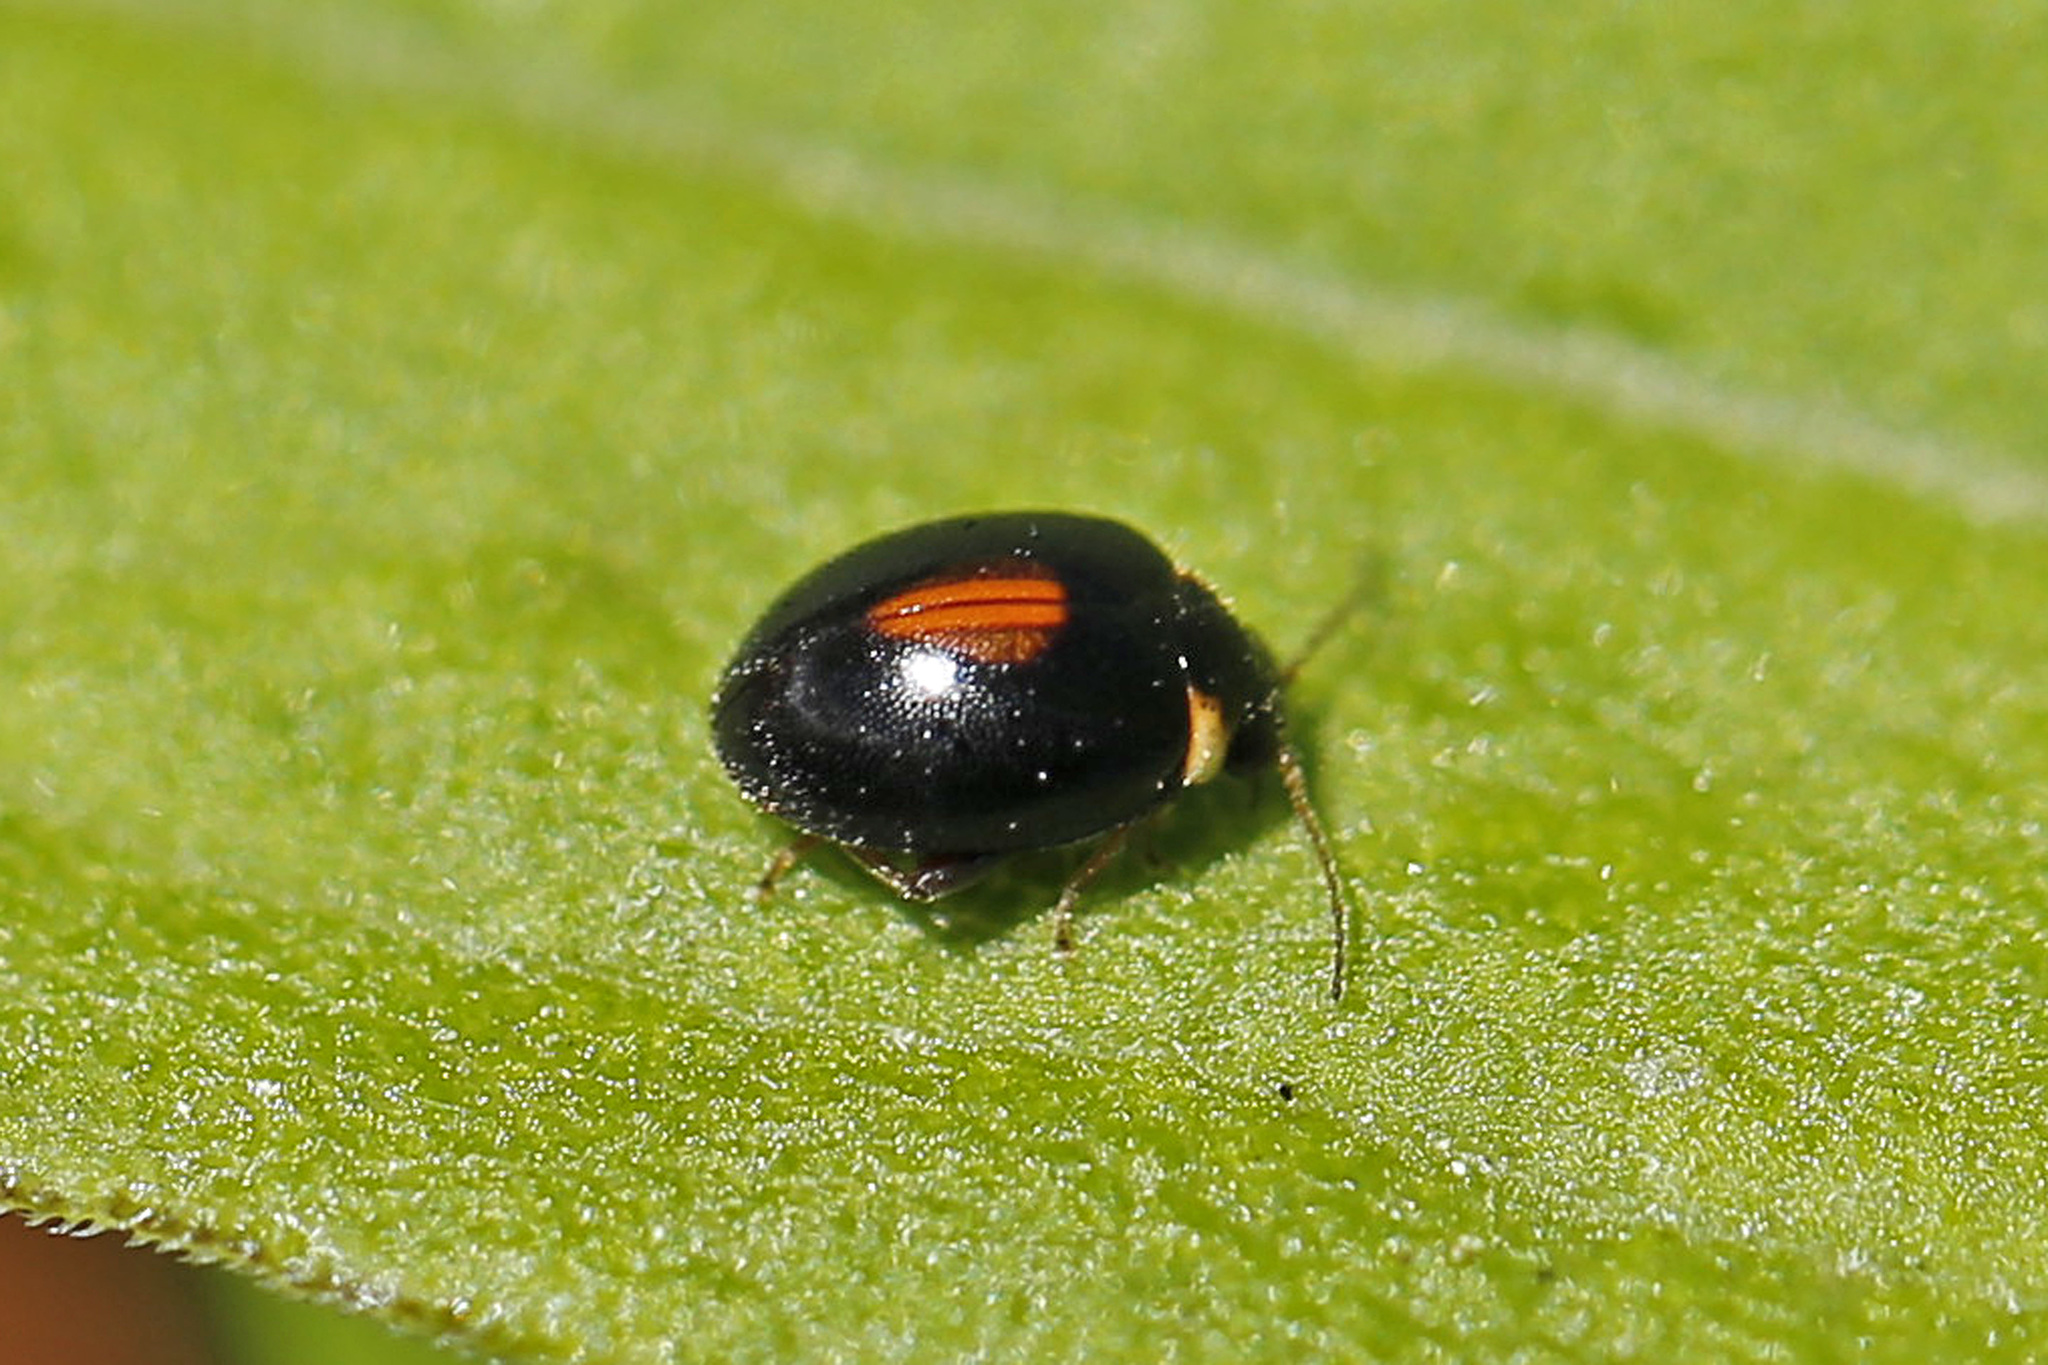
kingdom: Animalia
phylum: Arthropoda
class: Insecta
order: Coleoptera
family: Scirtidae
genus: Scirtes
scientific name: Scirtes orbiculatus
